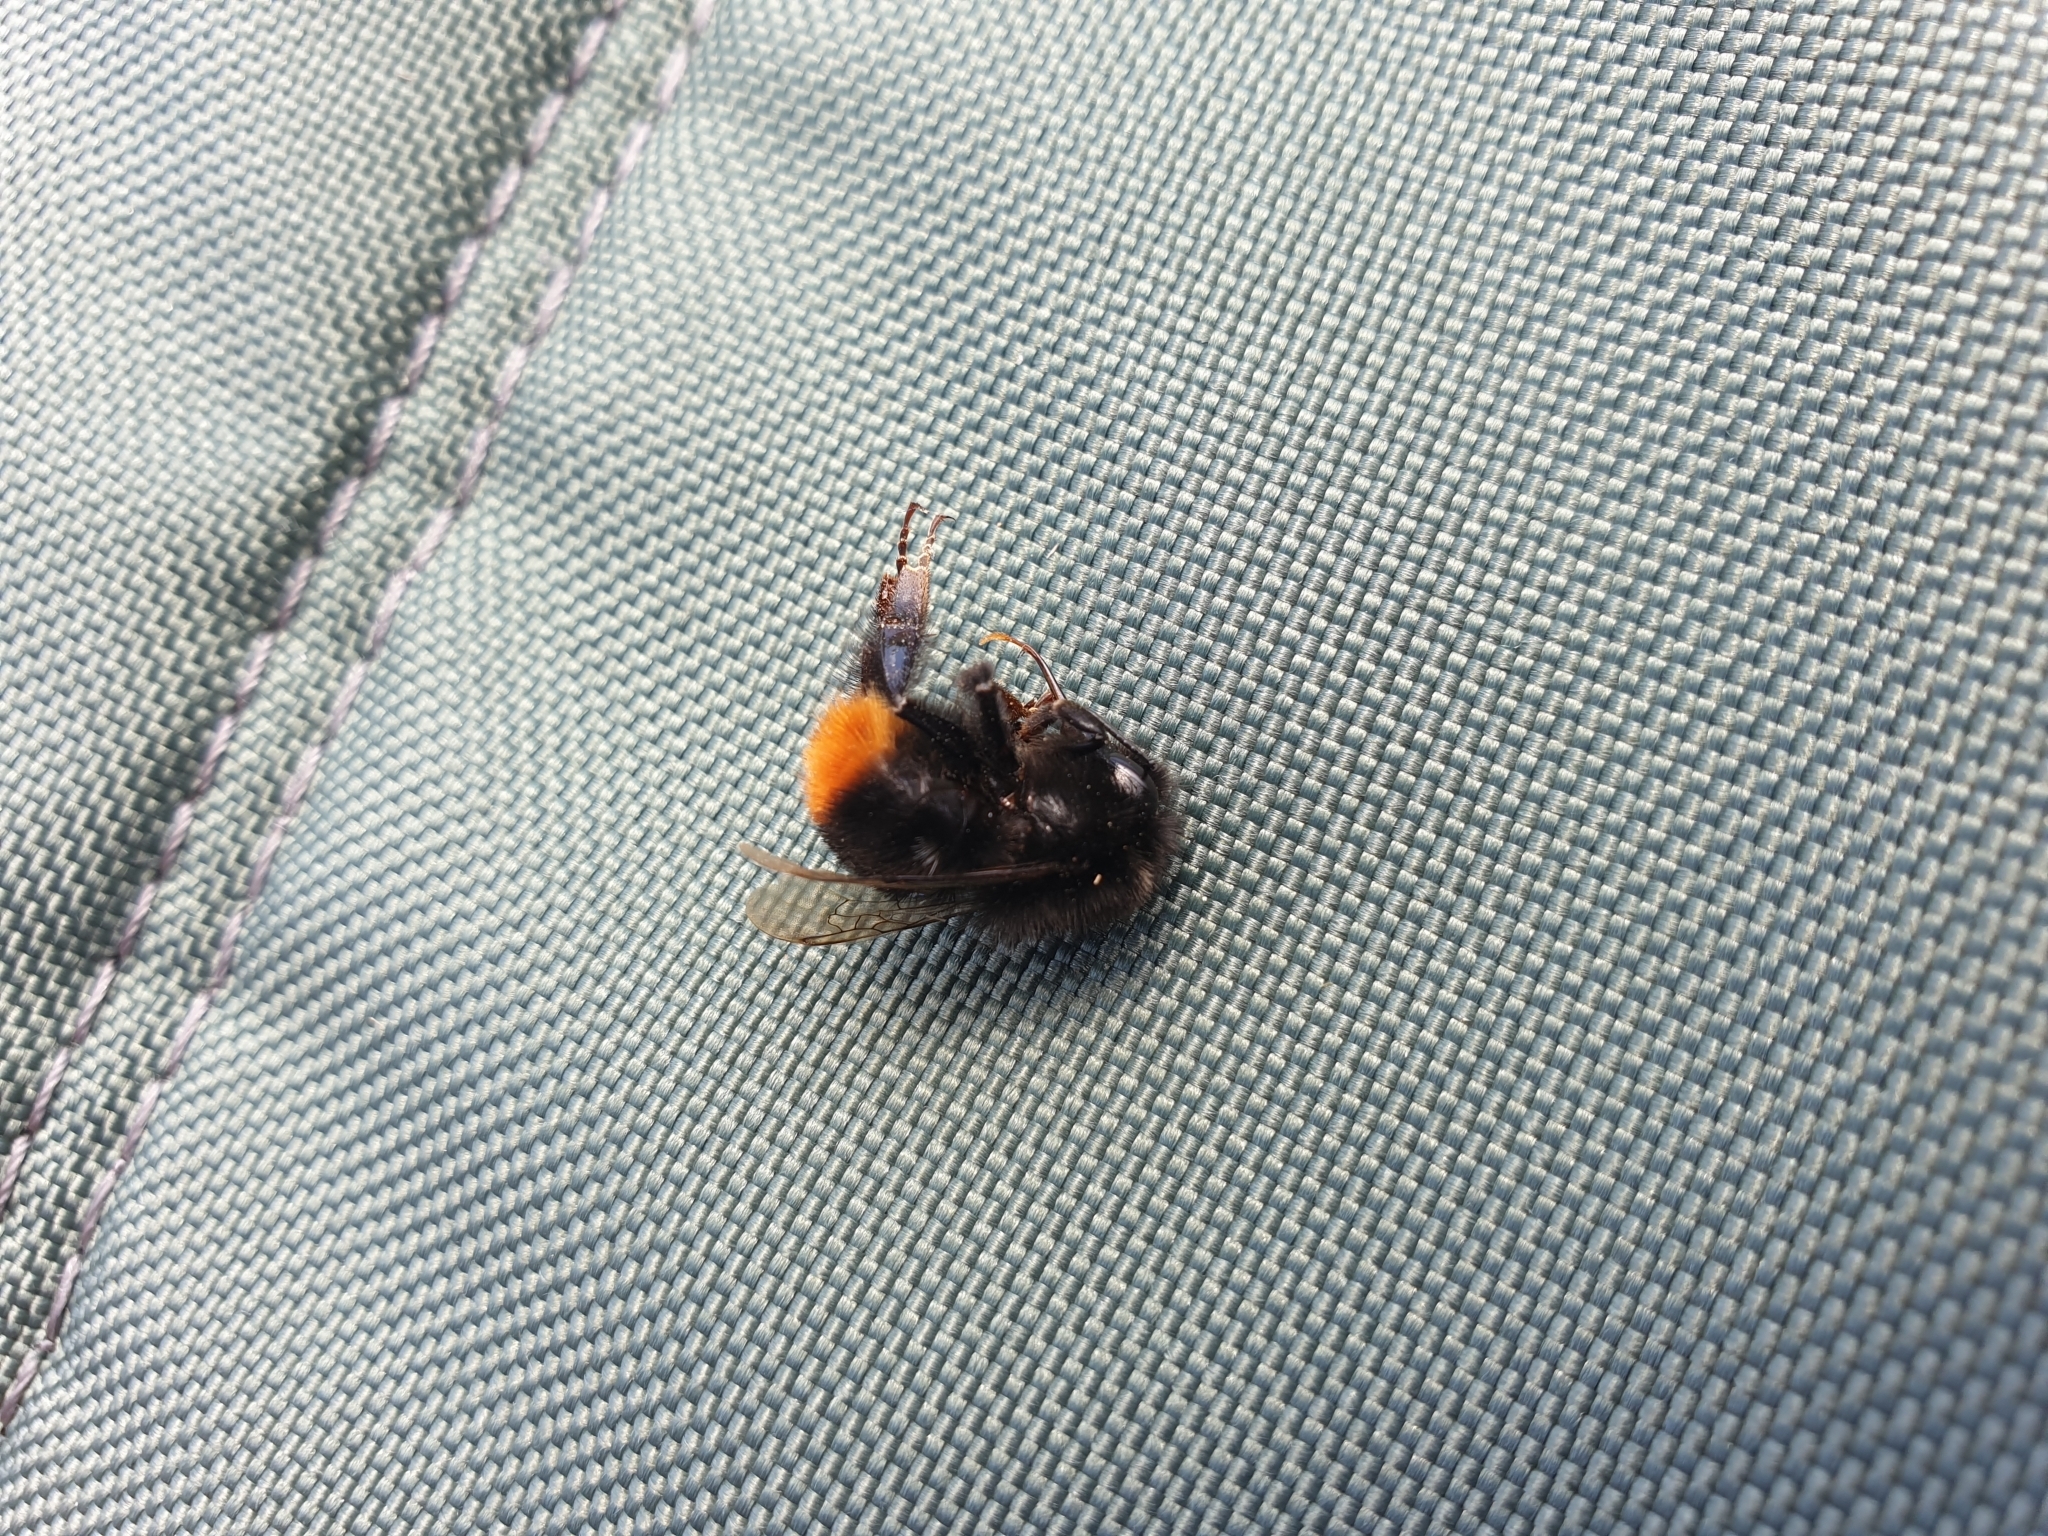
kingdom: Animalia
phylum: Arthropoda
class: Insecta
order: Hymenoptera
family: Apidae
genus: Bombus
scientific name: Bombus lapidarius
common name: Large red-tailed humble-bee
